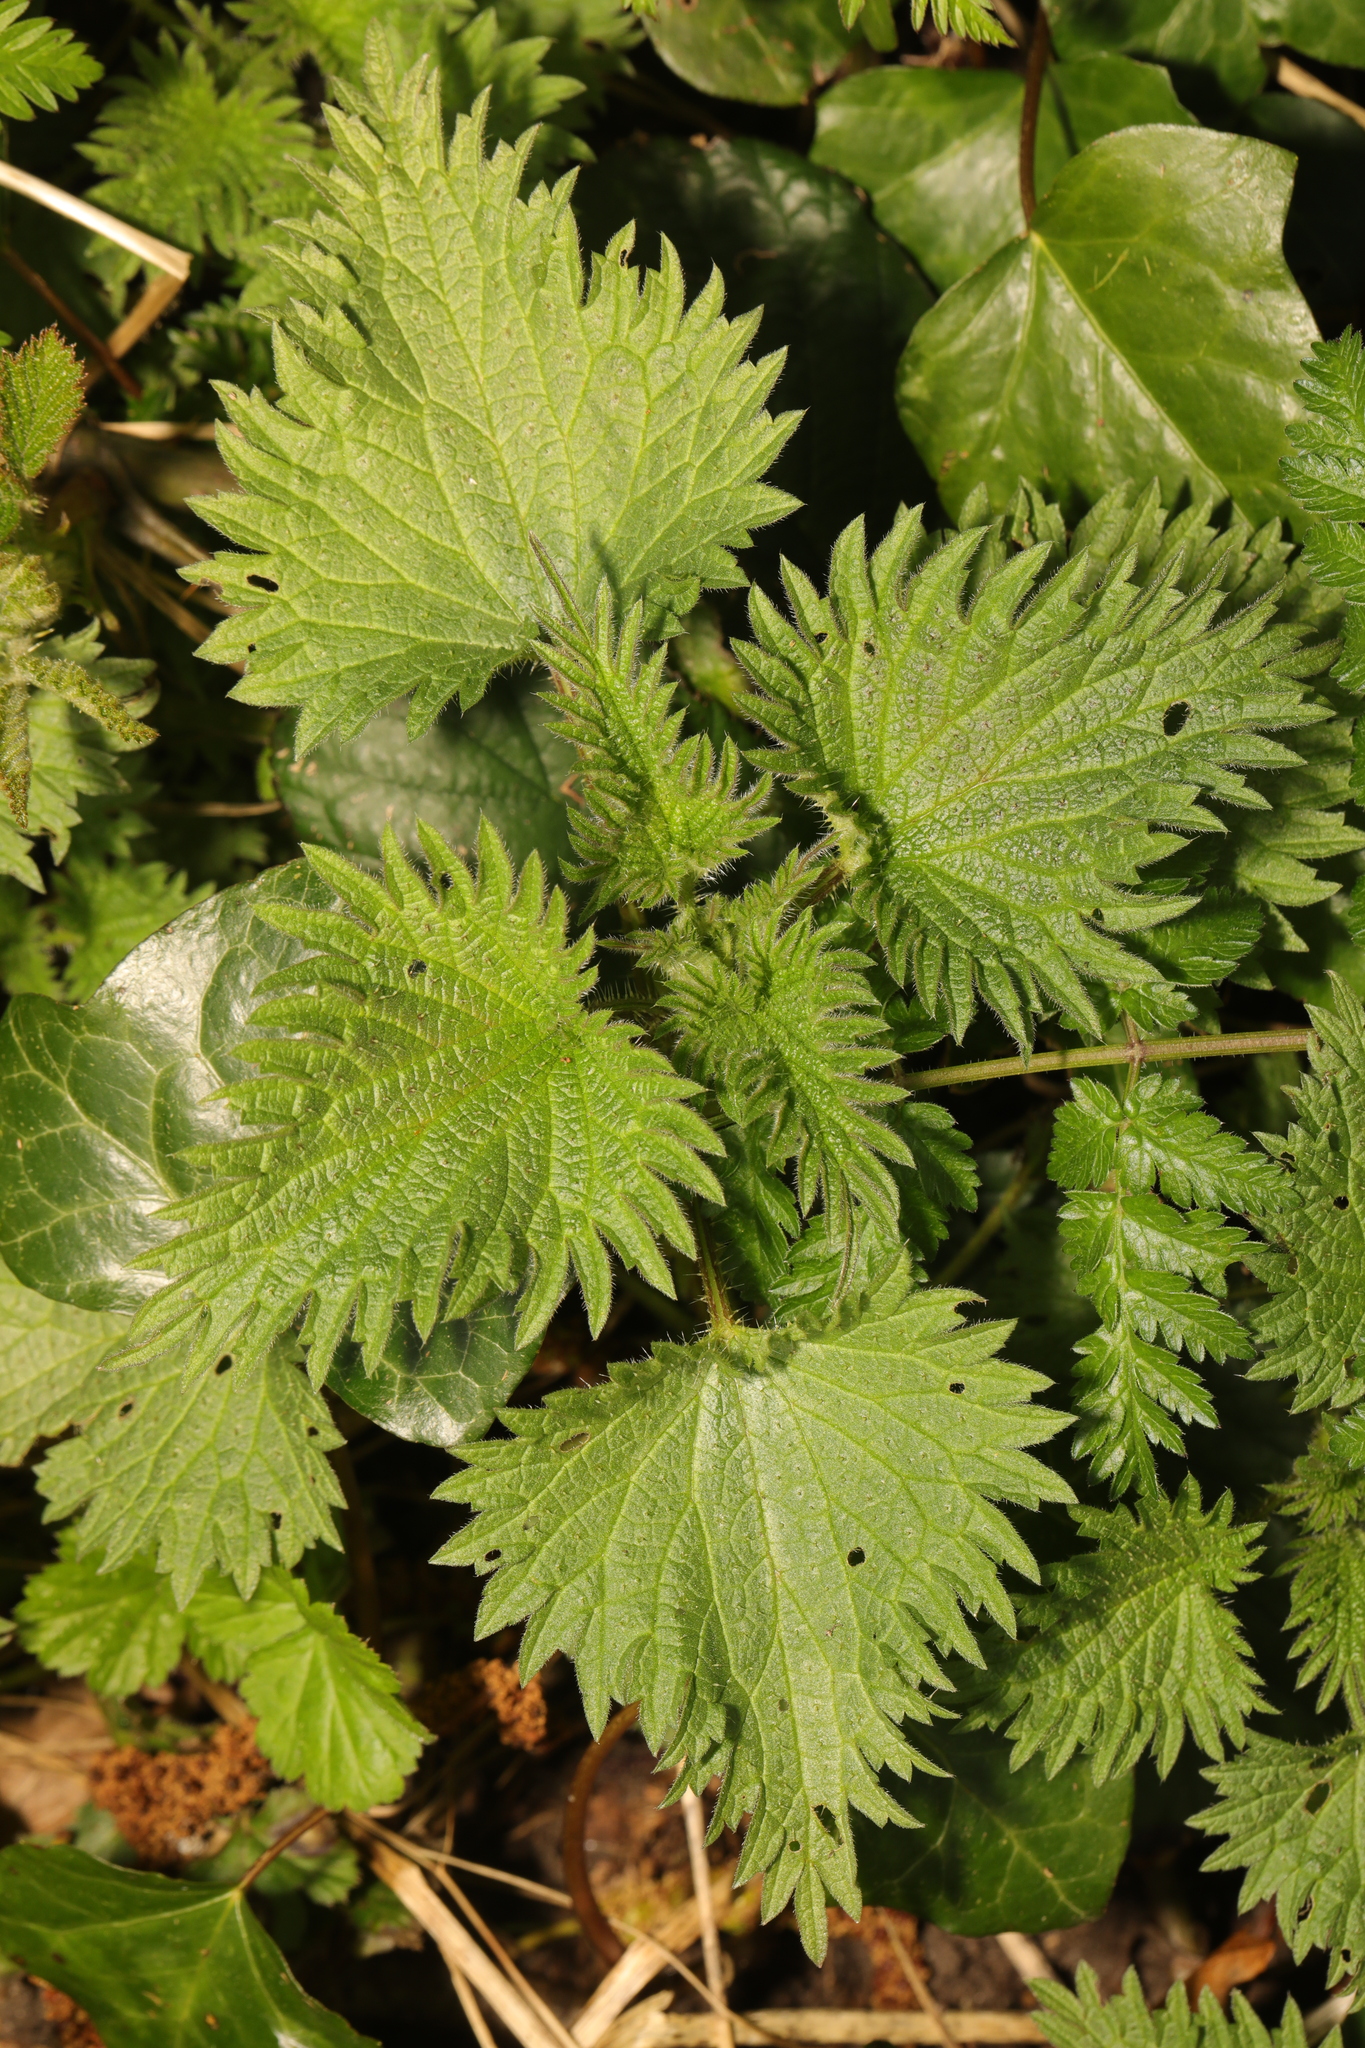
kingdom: Plantae
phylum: Tracheophyta
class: Magnoliopsida
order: Rosales
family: Urticaceae
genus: Urtica
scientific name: Urtica dioica
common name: Common nettle
